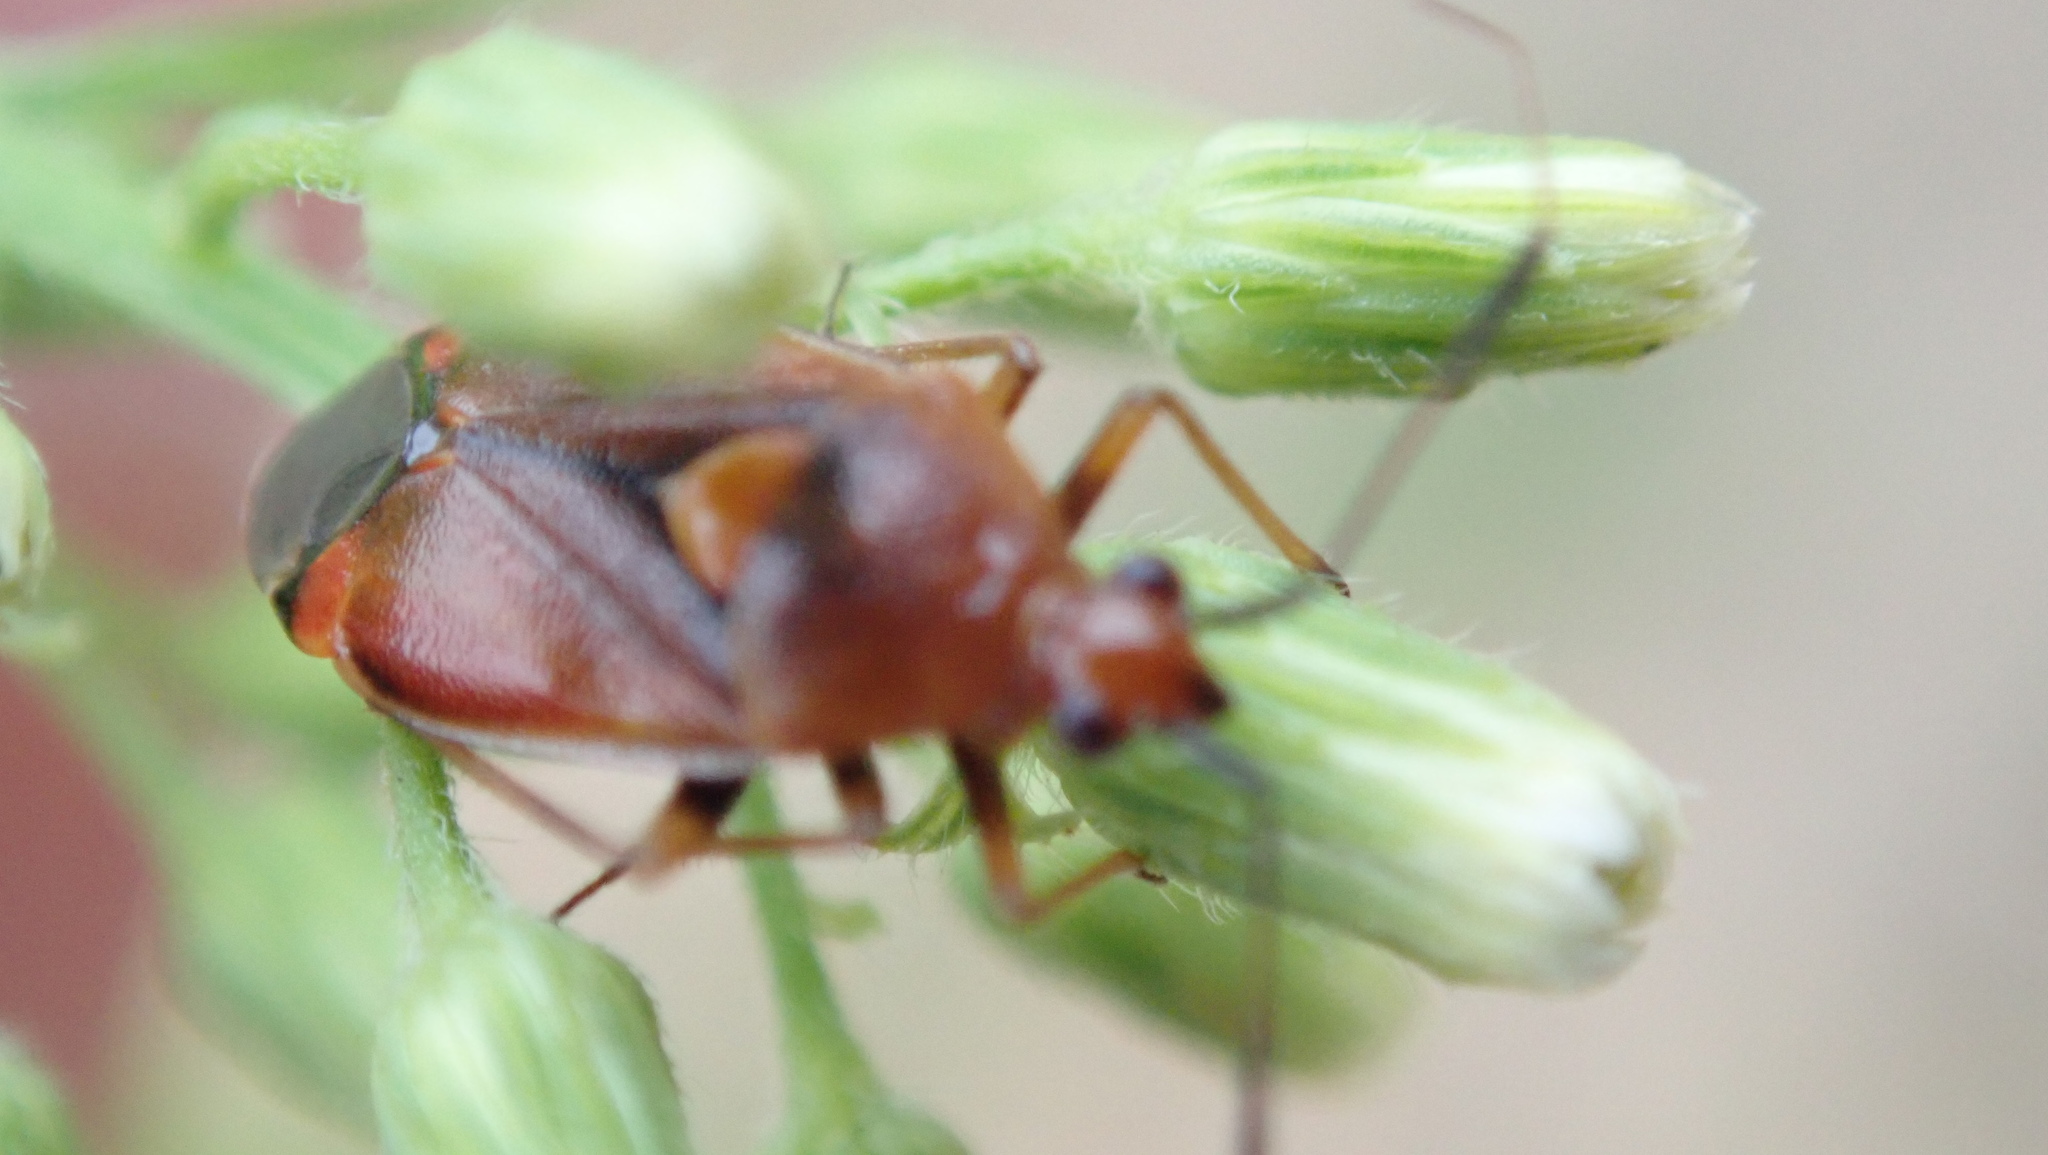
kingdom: Animalia
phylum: Arthropoda
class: Insecta
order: Hemiptera
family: Miridae
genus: Deraeocoris
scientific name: Deraeocoris ruber
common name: Plant bug
